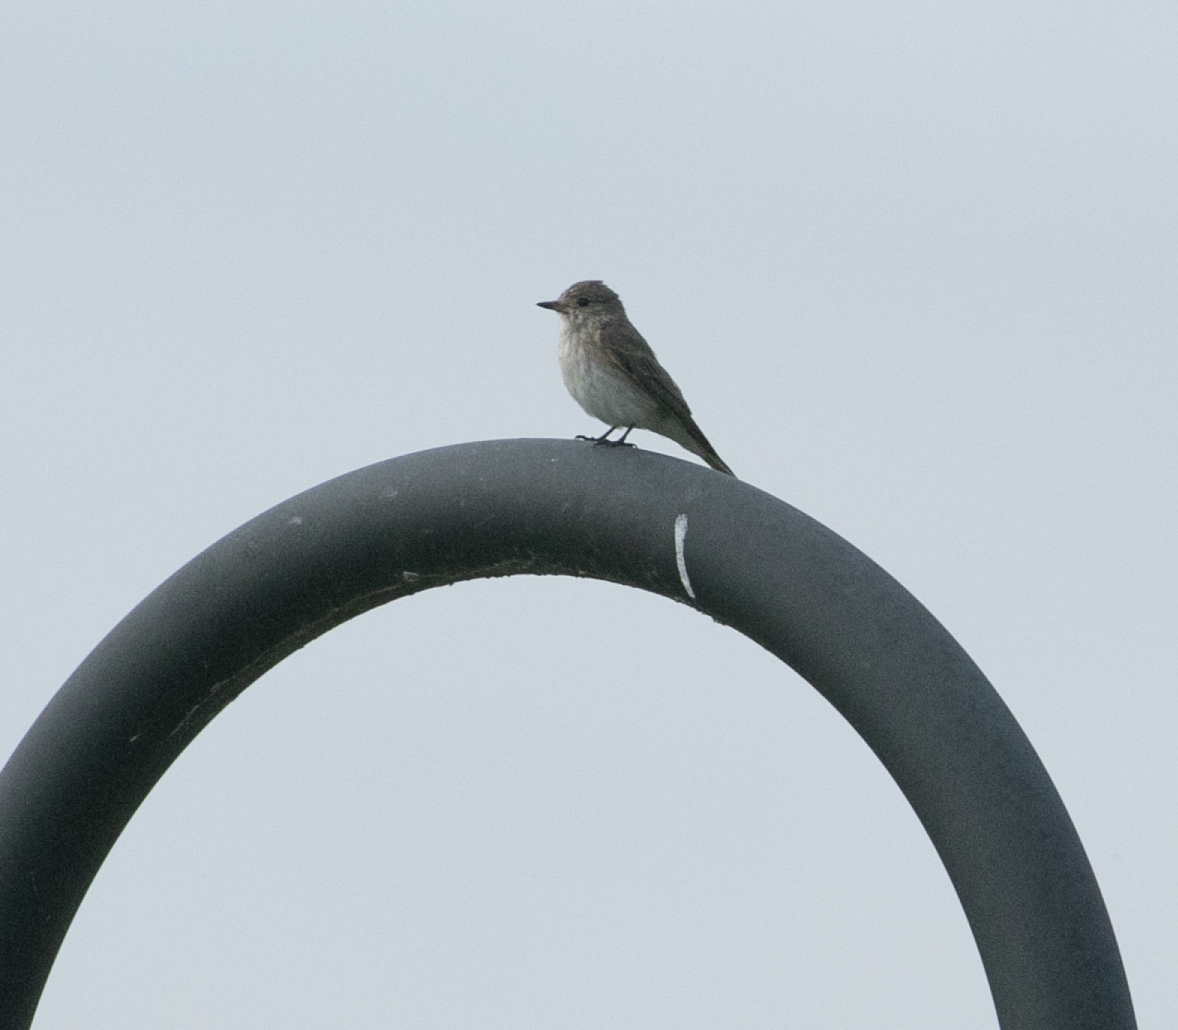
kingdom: Animalia
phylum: Chordata
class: Aves
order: Passeriformes
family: Muscicapidae
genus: Muscicapa
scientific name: Muscicapa striata
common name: Spotted flycatcher
